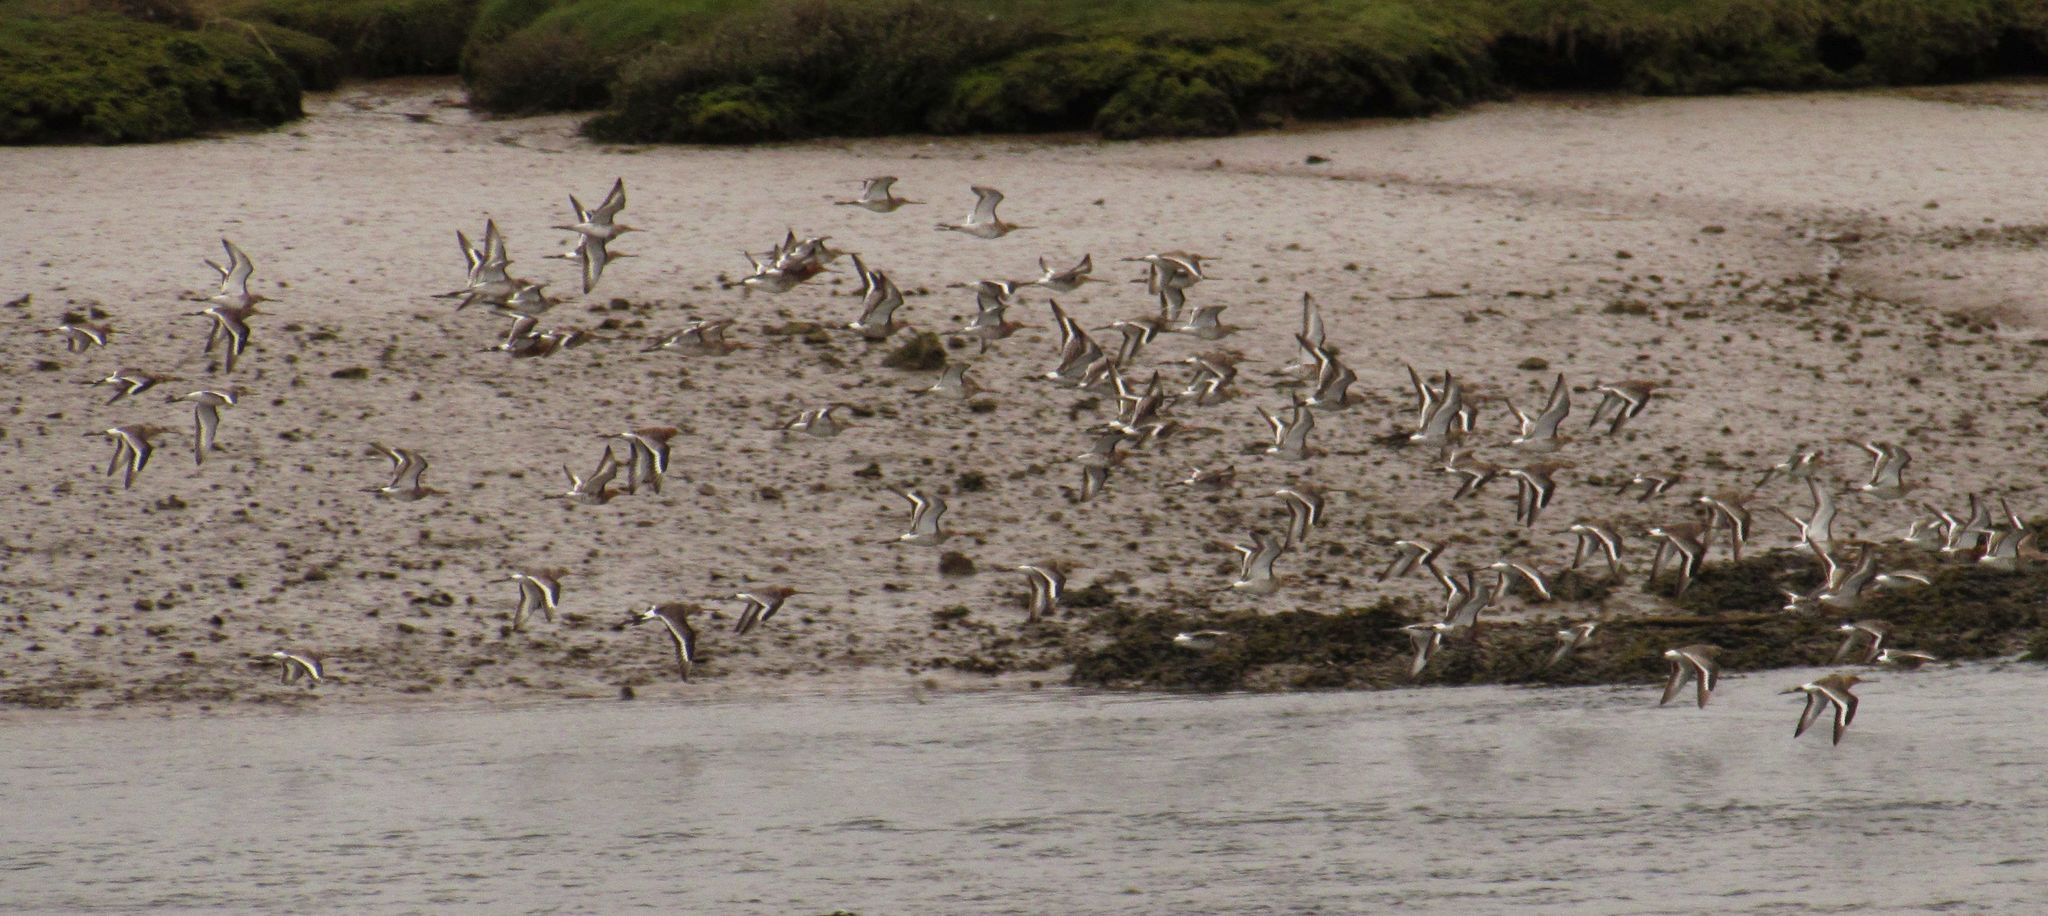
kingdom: Animalia
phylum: Chordata
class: Aves
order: Charadriiformes
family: Scolopacidae
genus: Limosa
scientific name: Limosa limosa
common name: Black-tailed godwit
